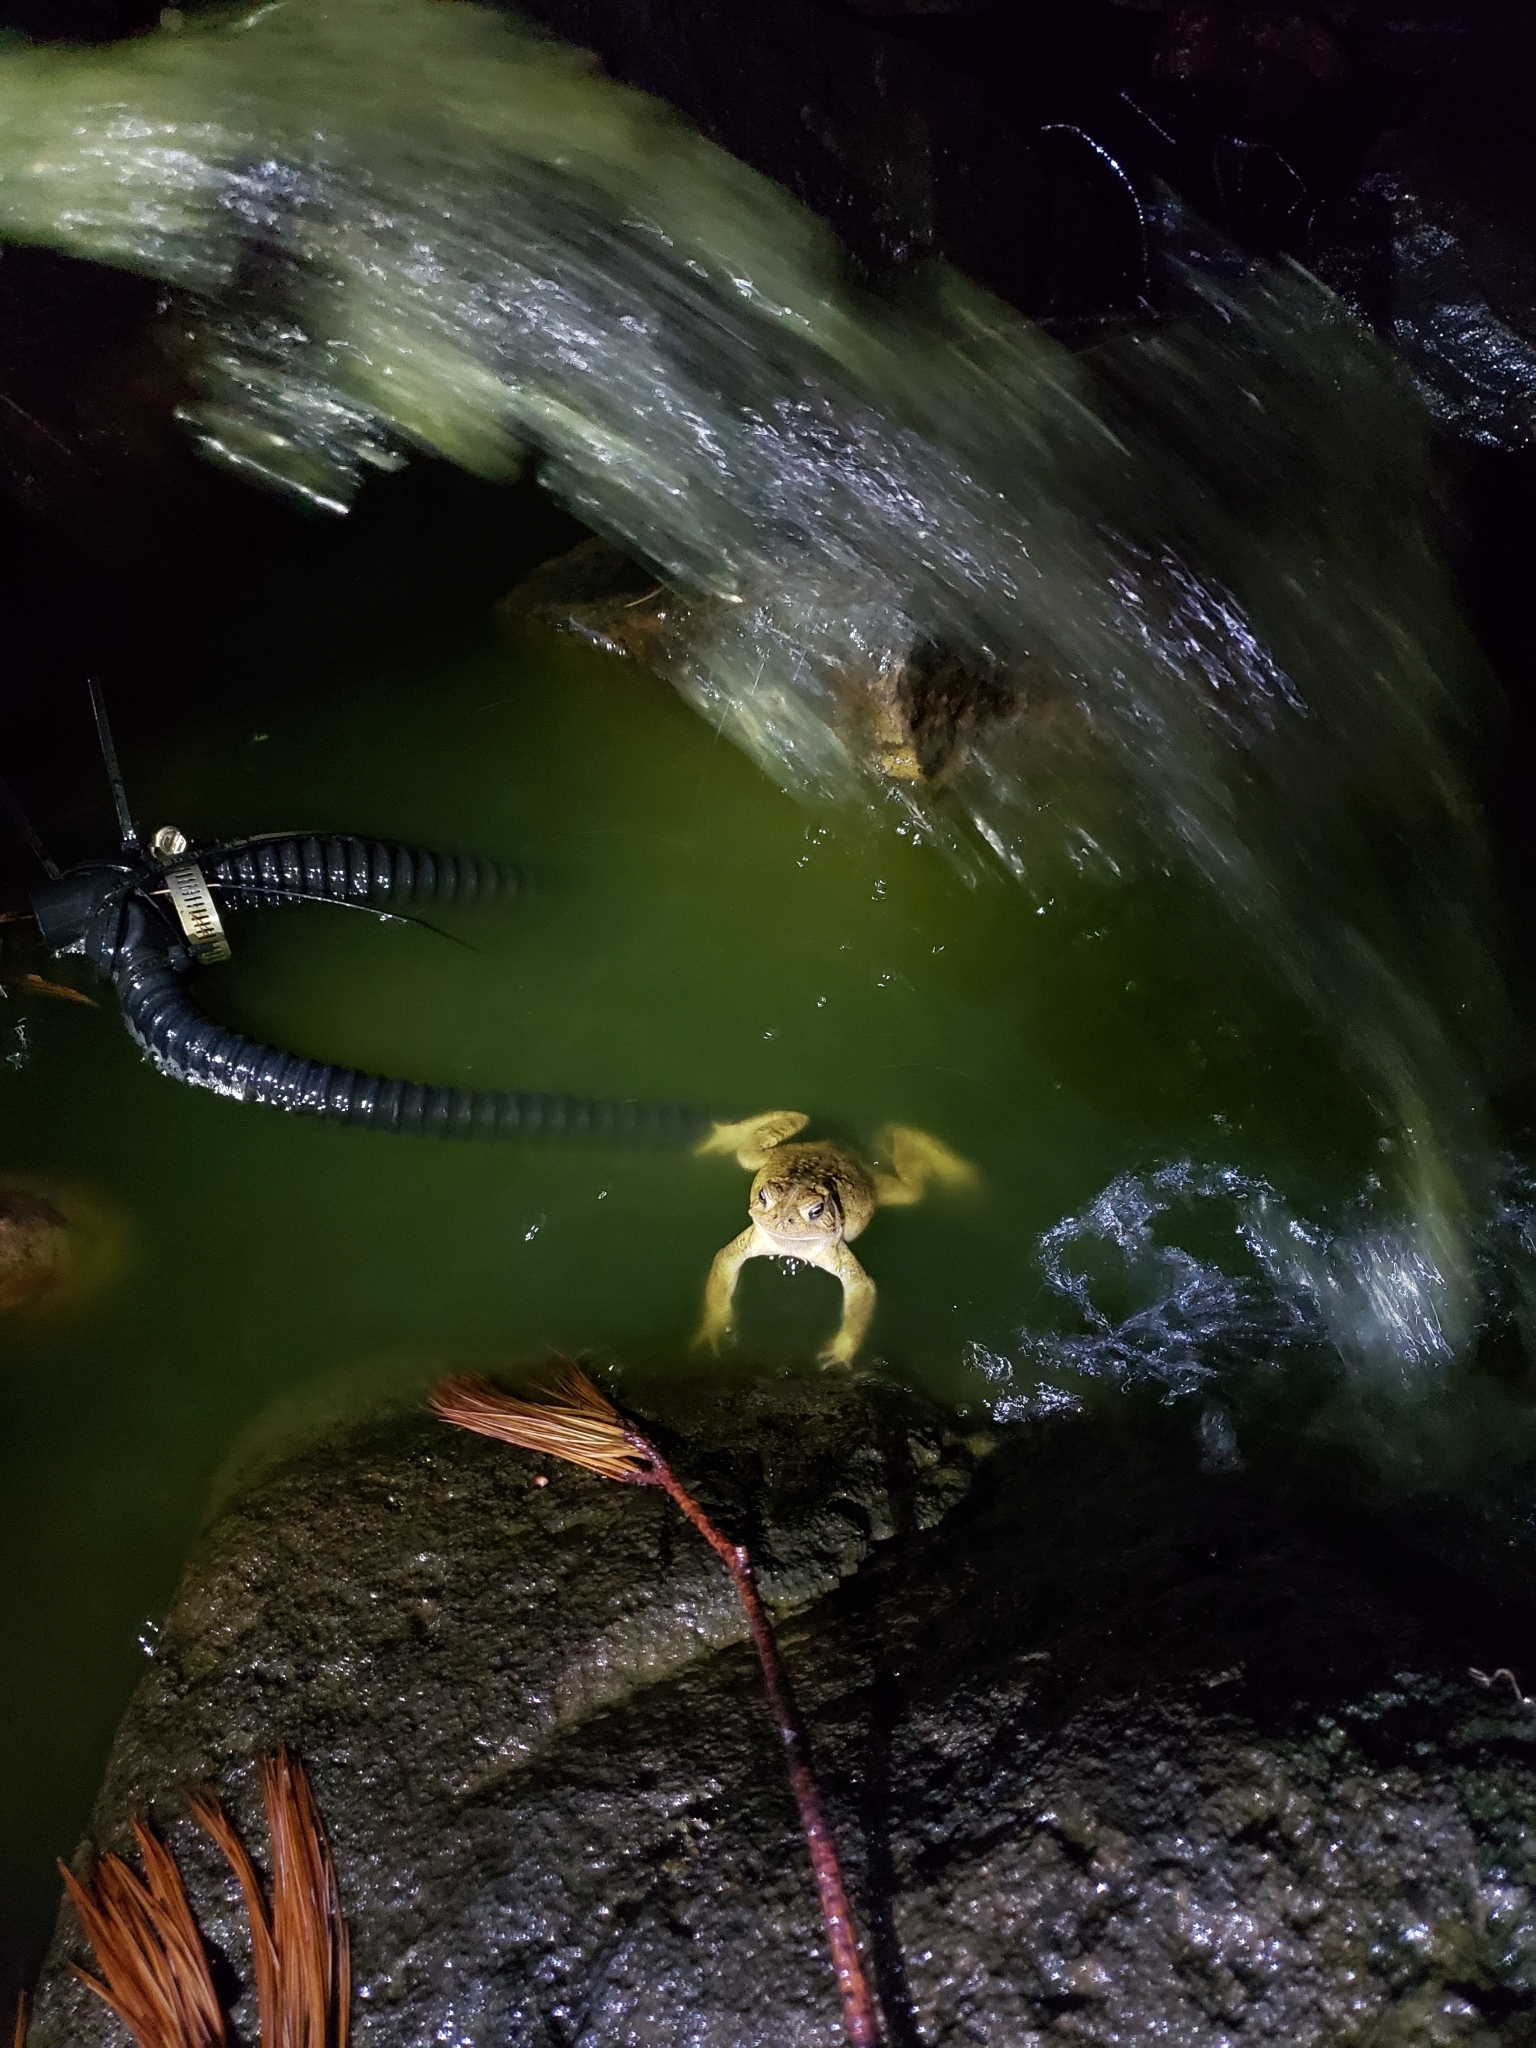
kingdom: Animalia
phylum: Chordata
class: Amphibia
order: Anura
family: Bufonidae
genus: Anaxyrus
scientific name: Anaxyrus americanus
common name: American toad
